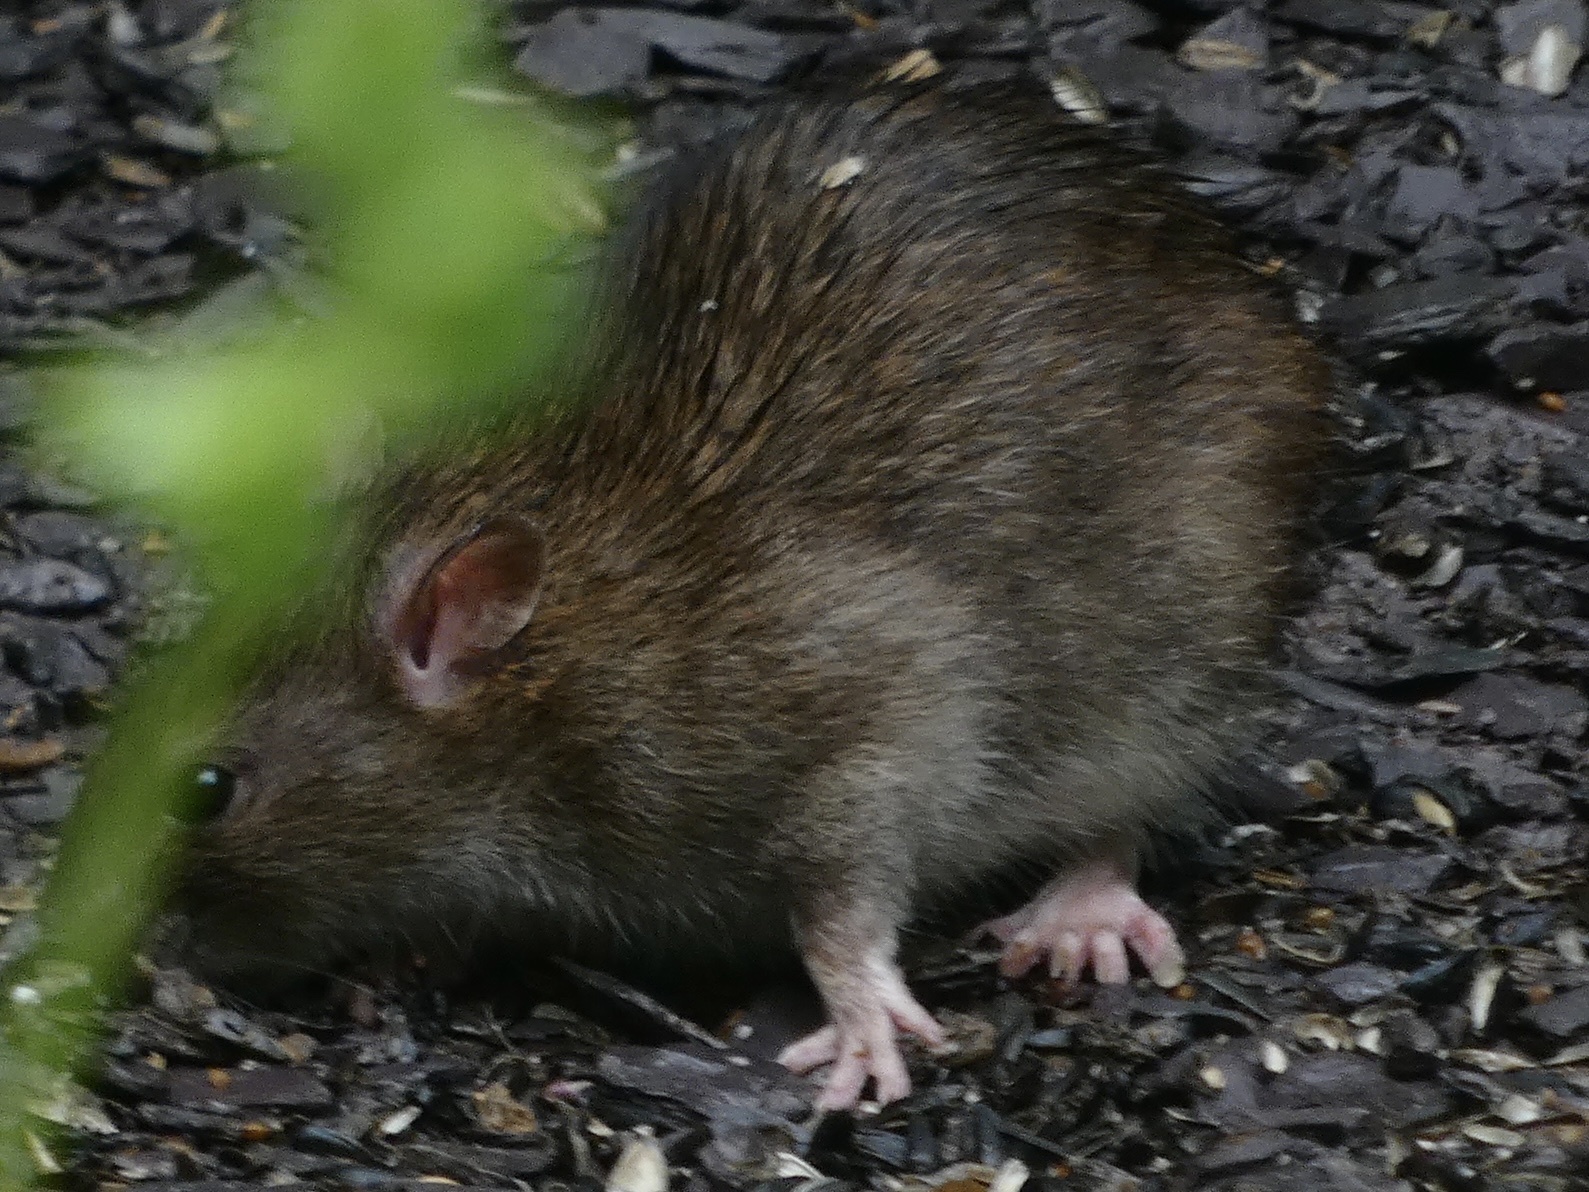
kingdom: Animalia
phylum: Chordata
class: Mammalia
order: Rodentia
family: Muridae
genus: Rattus
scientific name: Rattus norvegicus
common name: Brown rat
